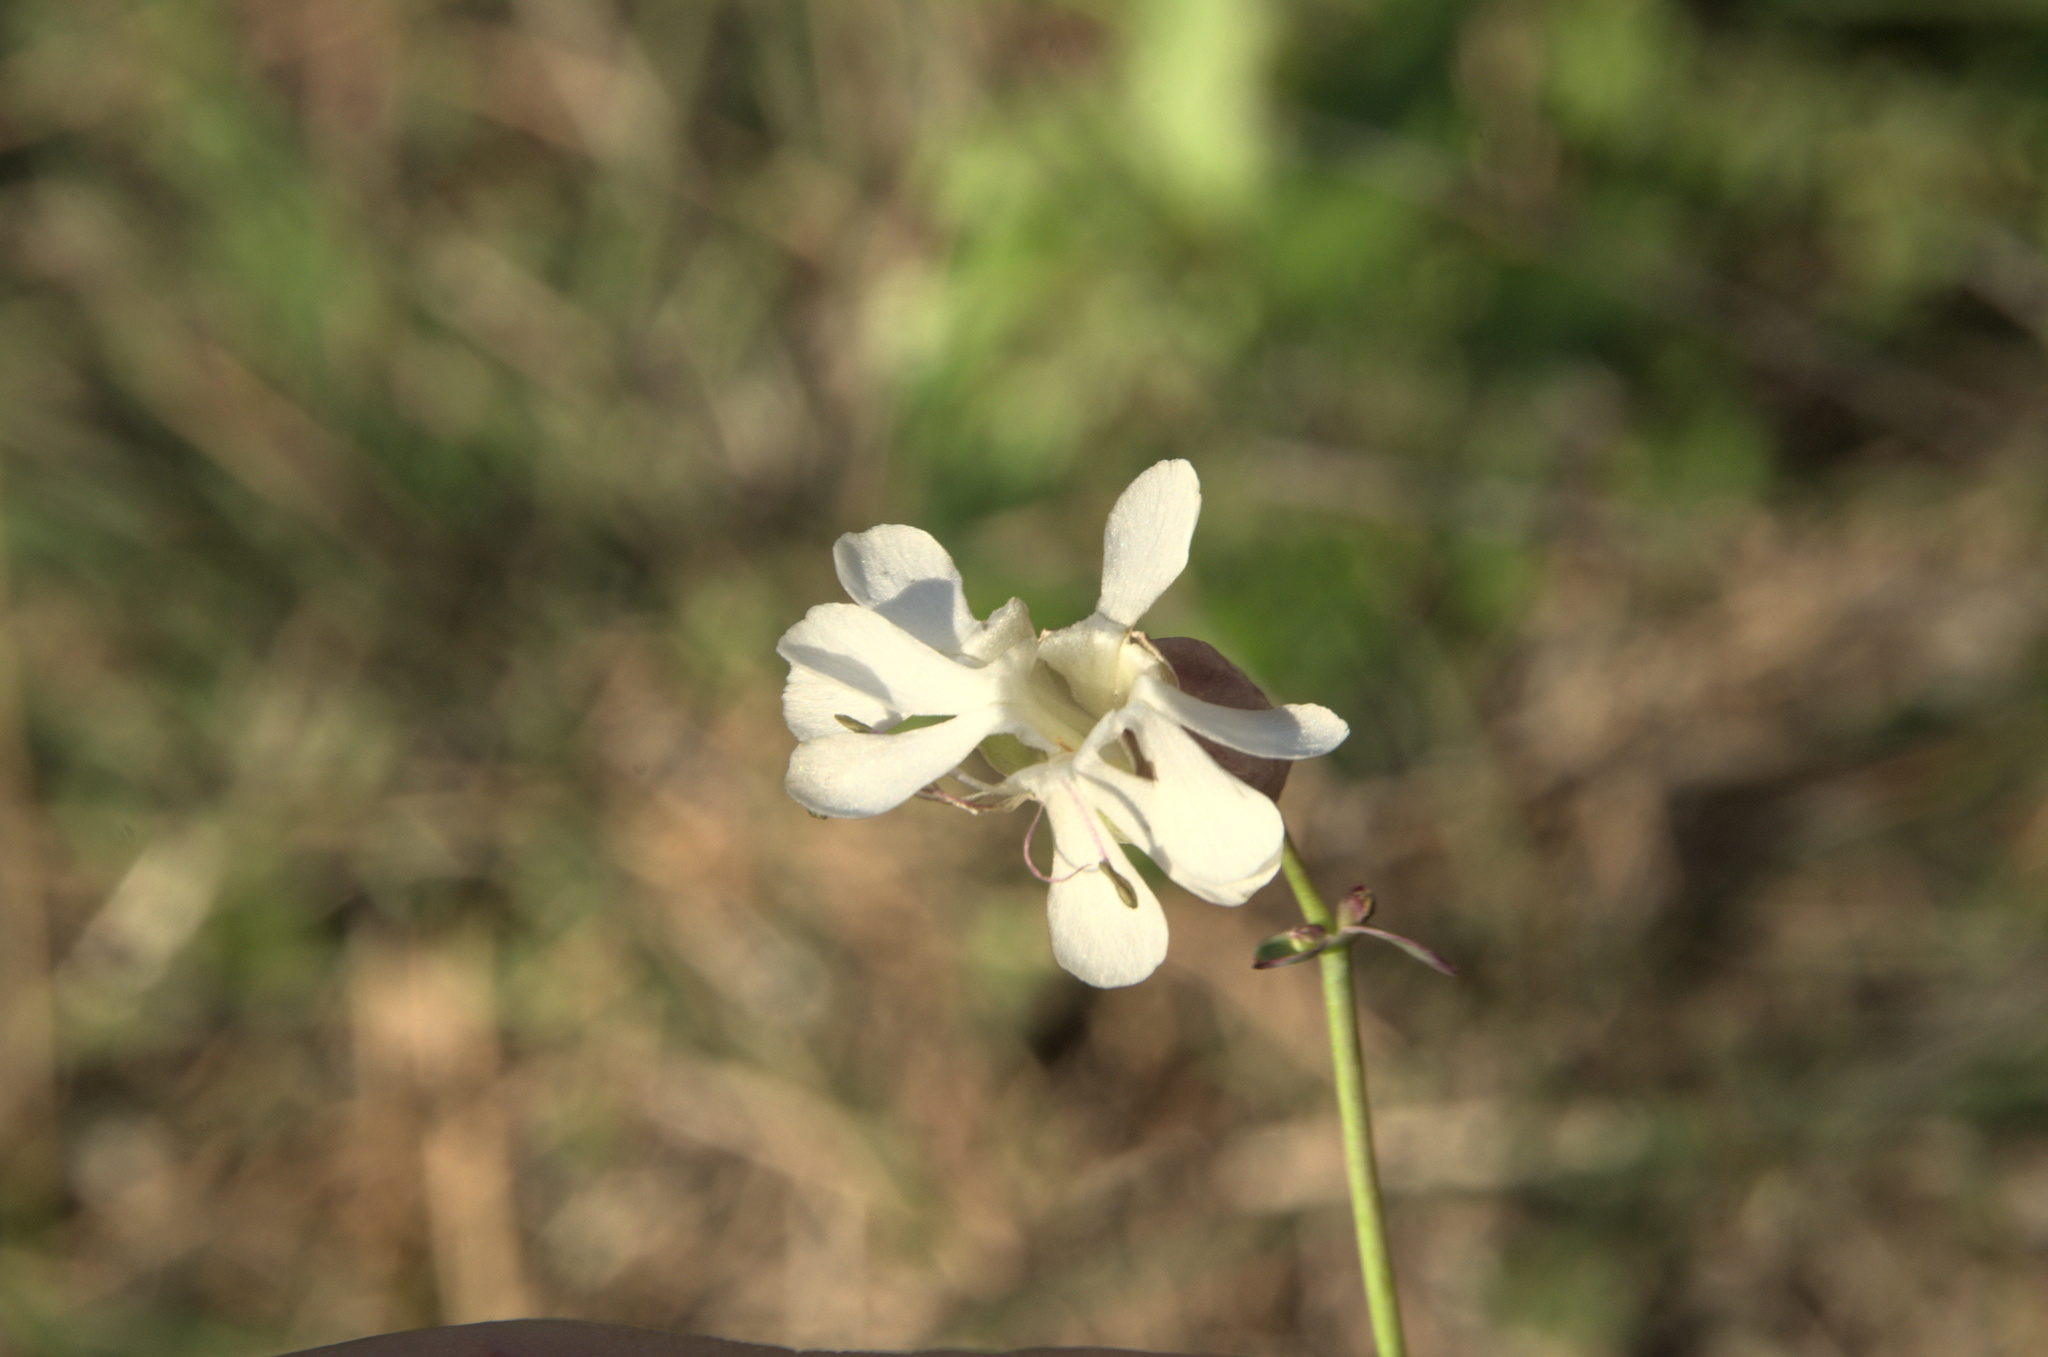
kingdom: Plantae
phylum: Tracheophyta
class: Magnoliopsida
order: Caryophyllales
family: Caryophyllaceae
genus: Silene
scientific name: Silene vulgaris
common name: Bladder campion
